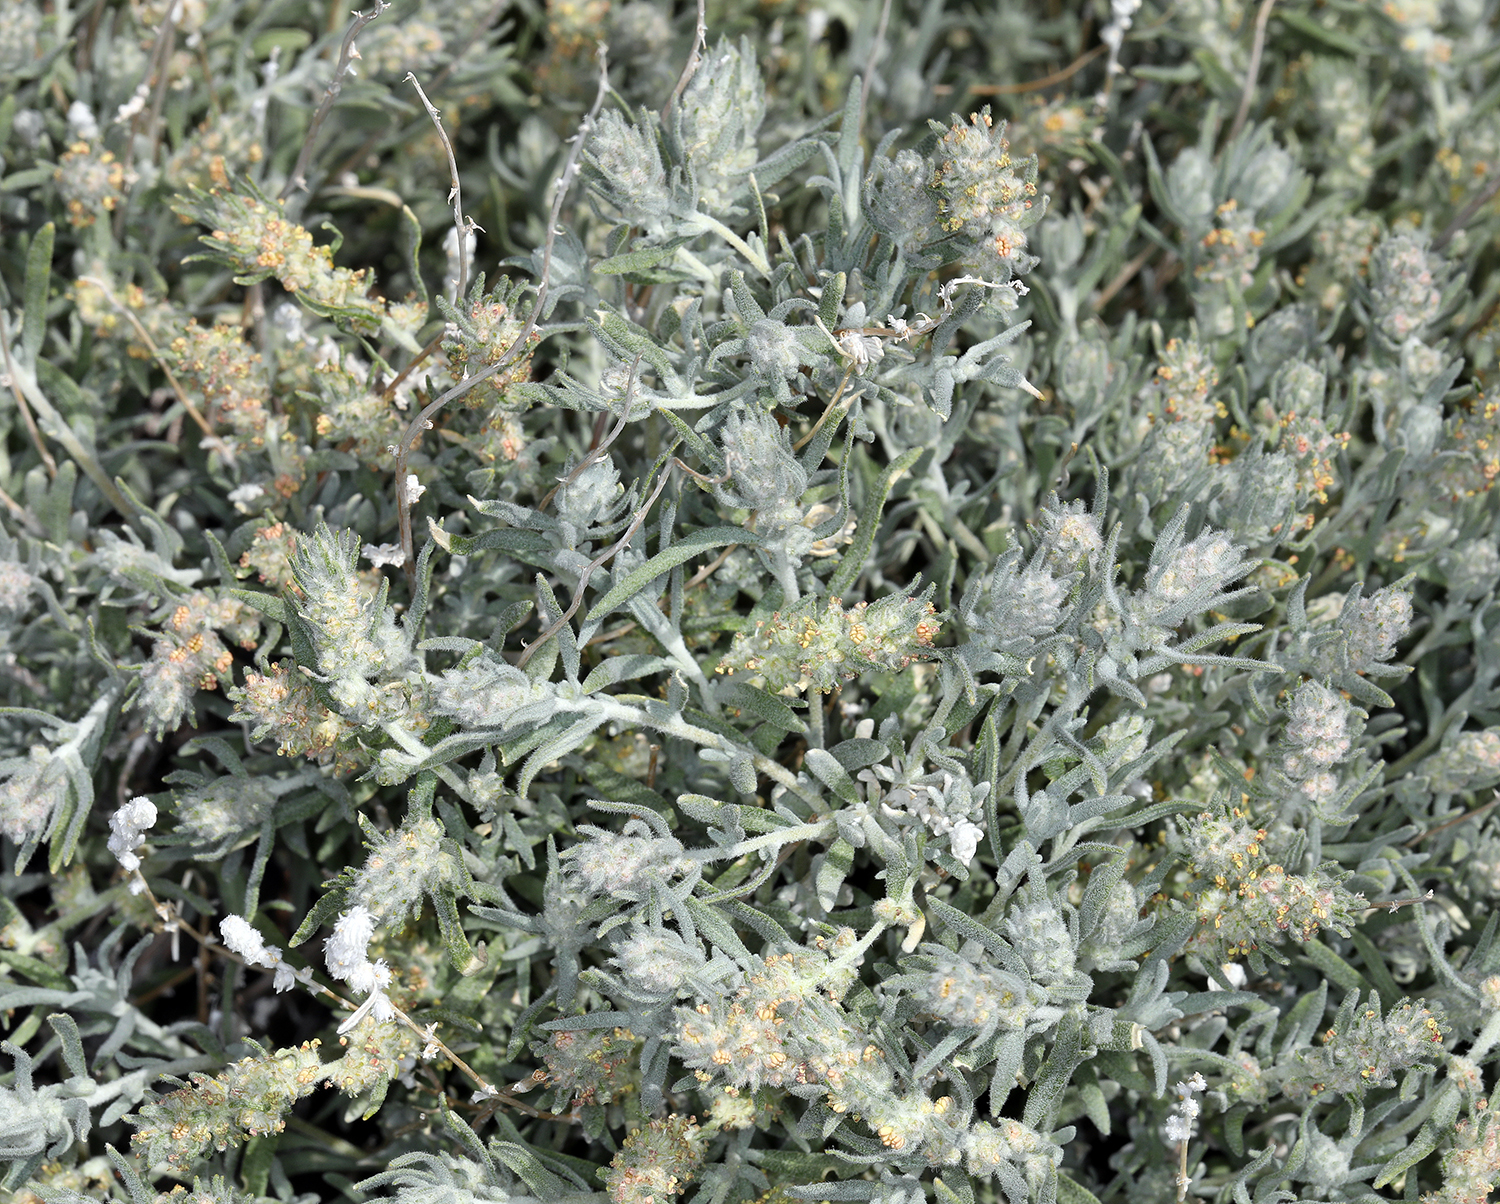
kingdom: Plantae
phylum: Tracheophyta
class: Magnoliopsida
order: Caryophyllales
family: Amaranthaceae
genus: Krascheninnikovia
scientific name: Krascheninnikovia lanata
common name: Winterfat
